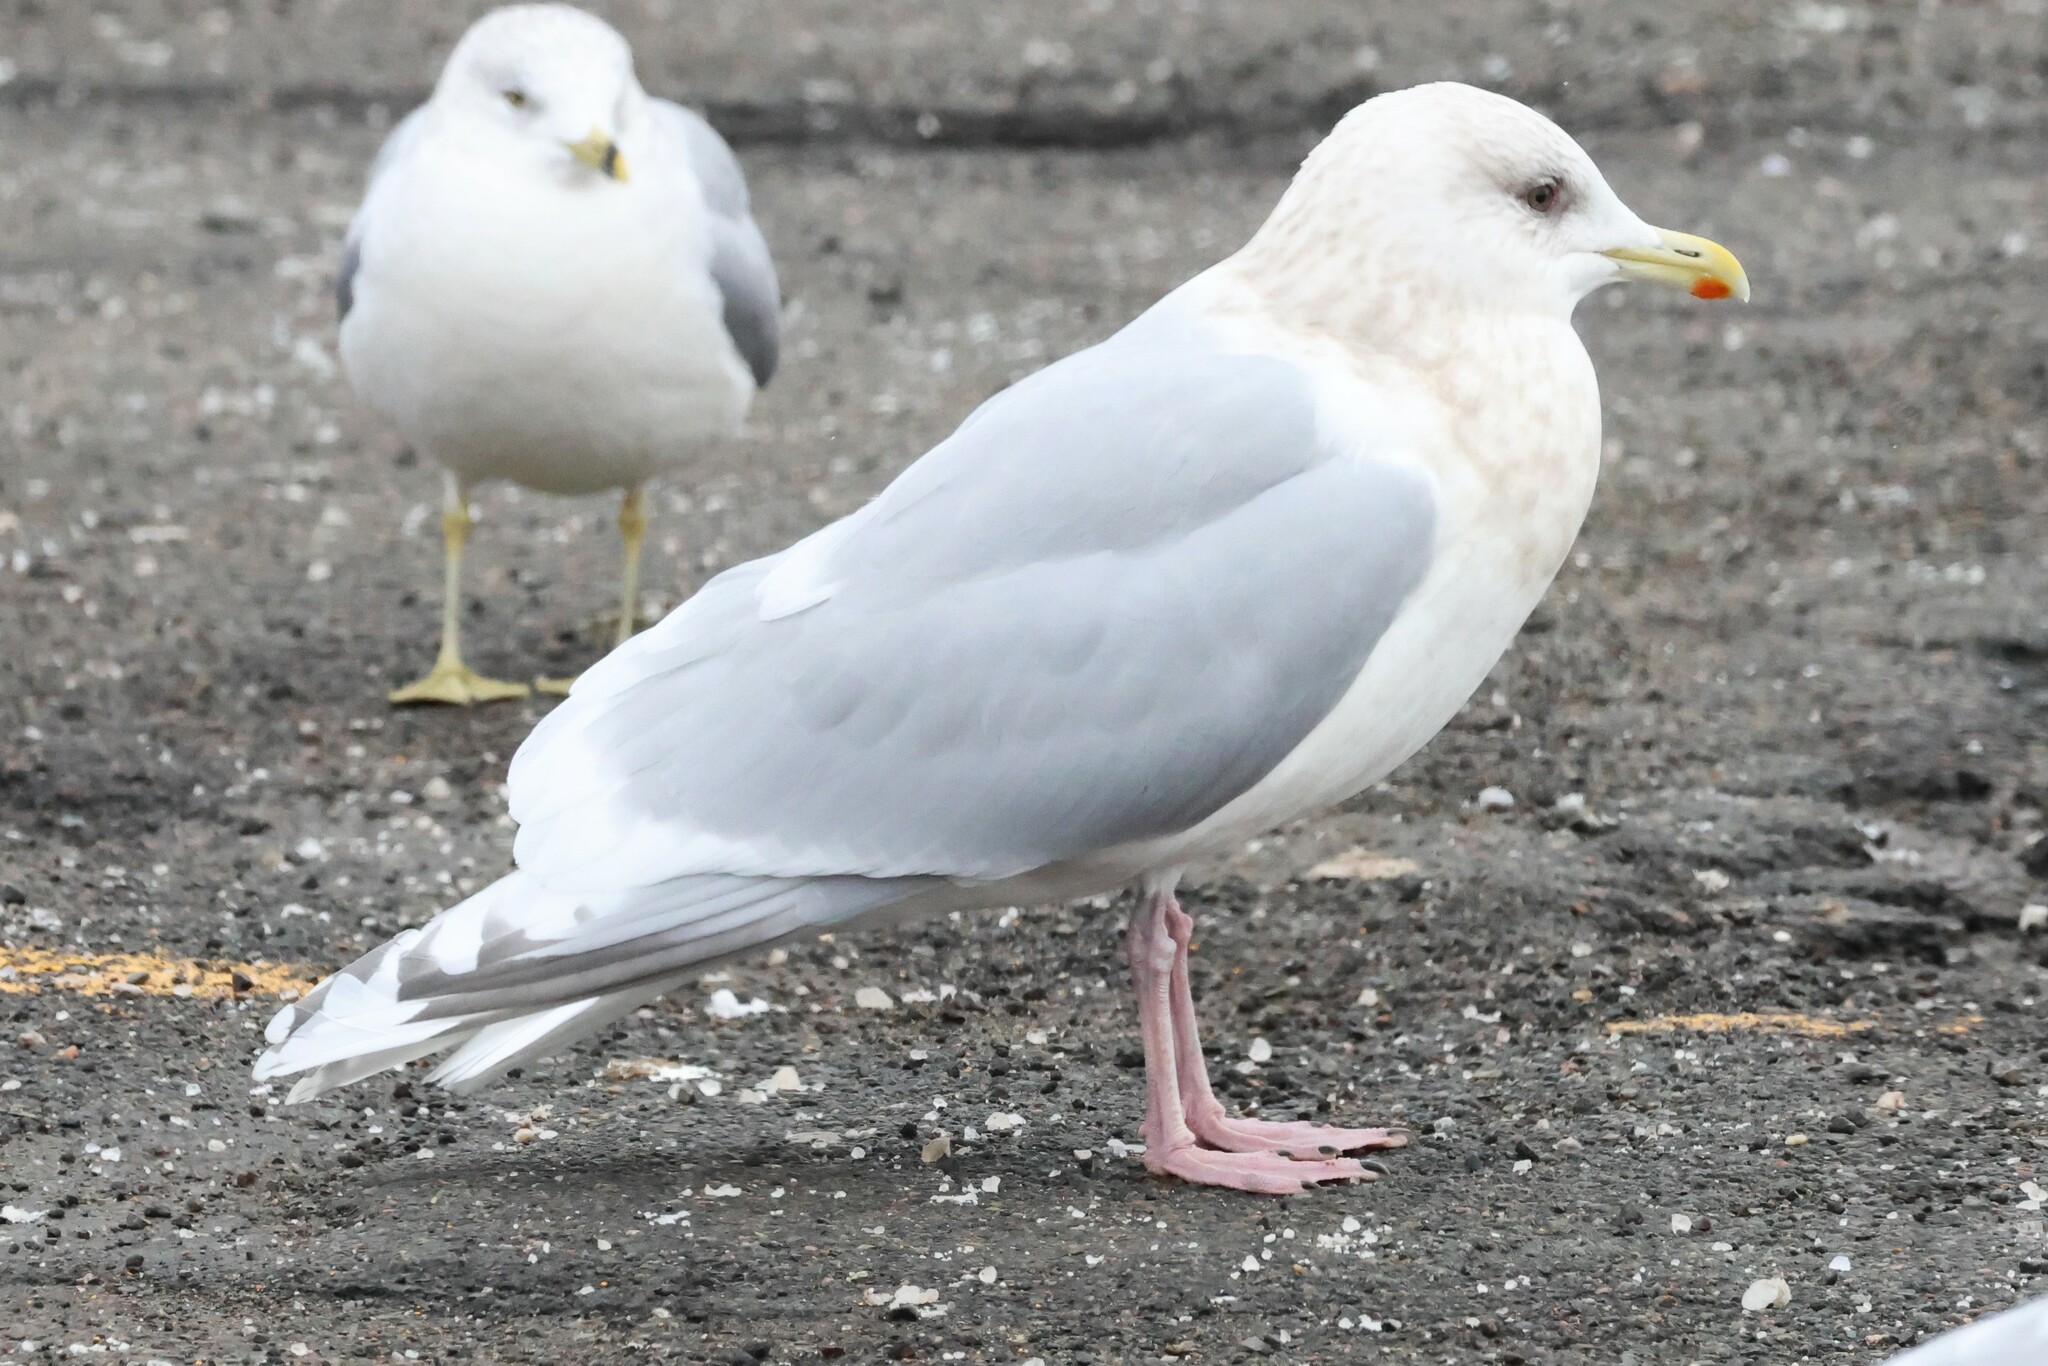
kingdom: Animalia
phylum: Chordata
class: Aves
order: Charadriiformes
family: Laridae
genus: Larus
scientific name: Larus glaucoides
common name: Iceland gull
